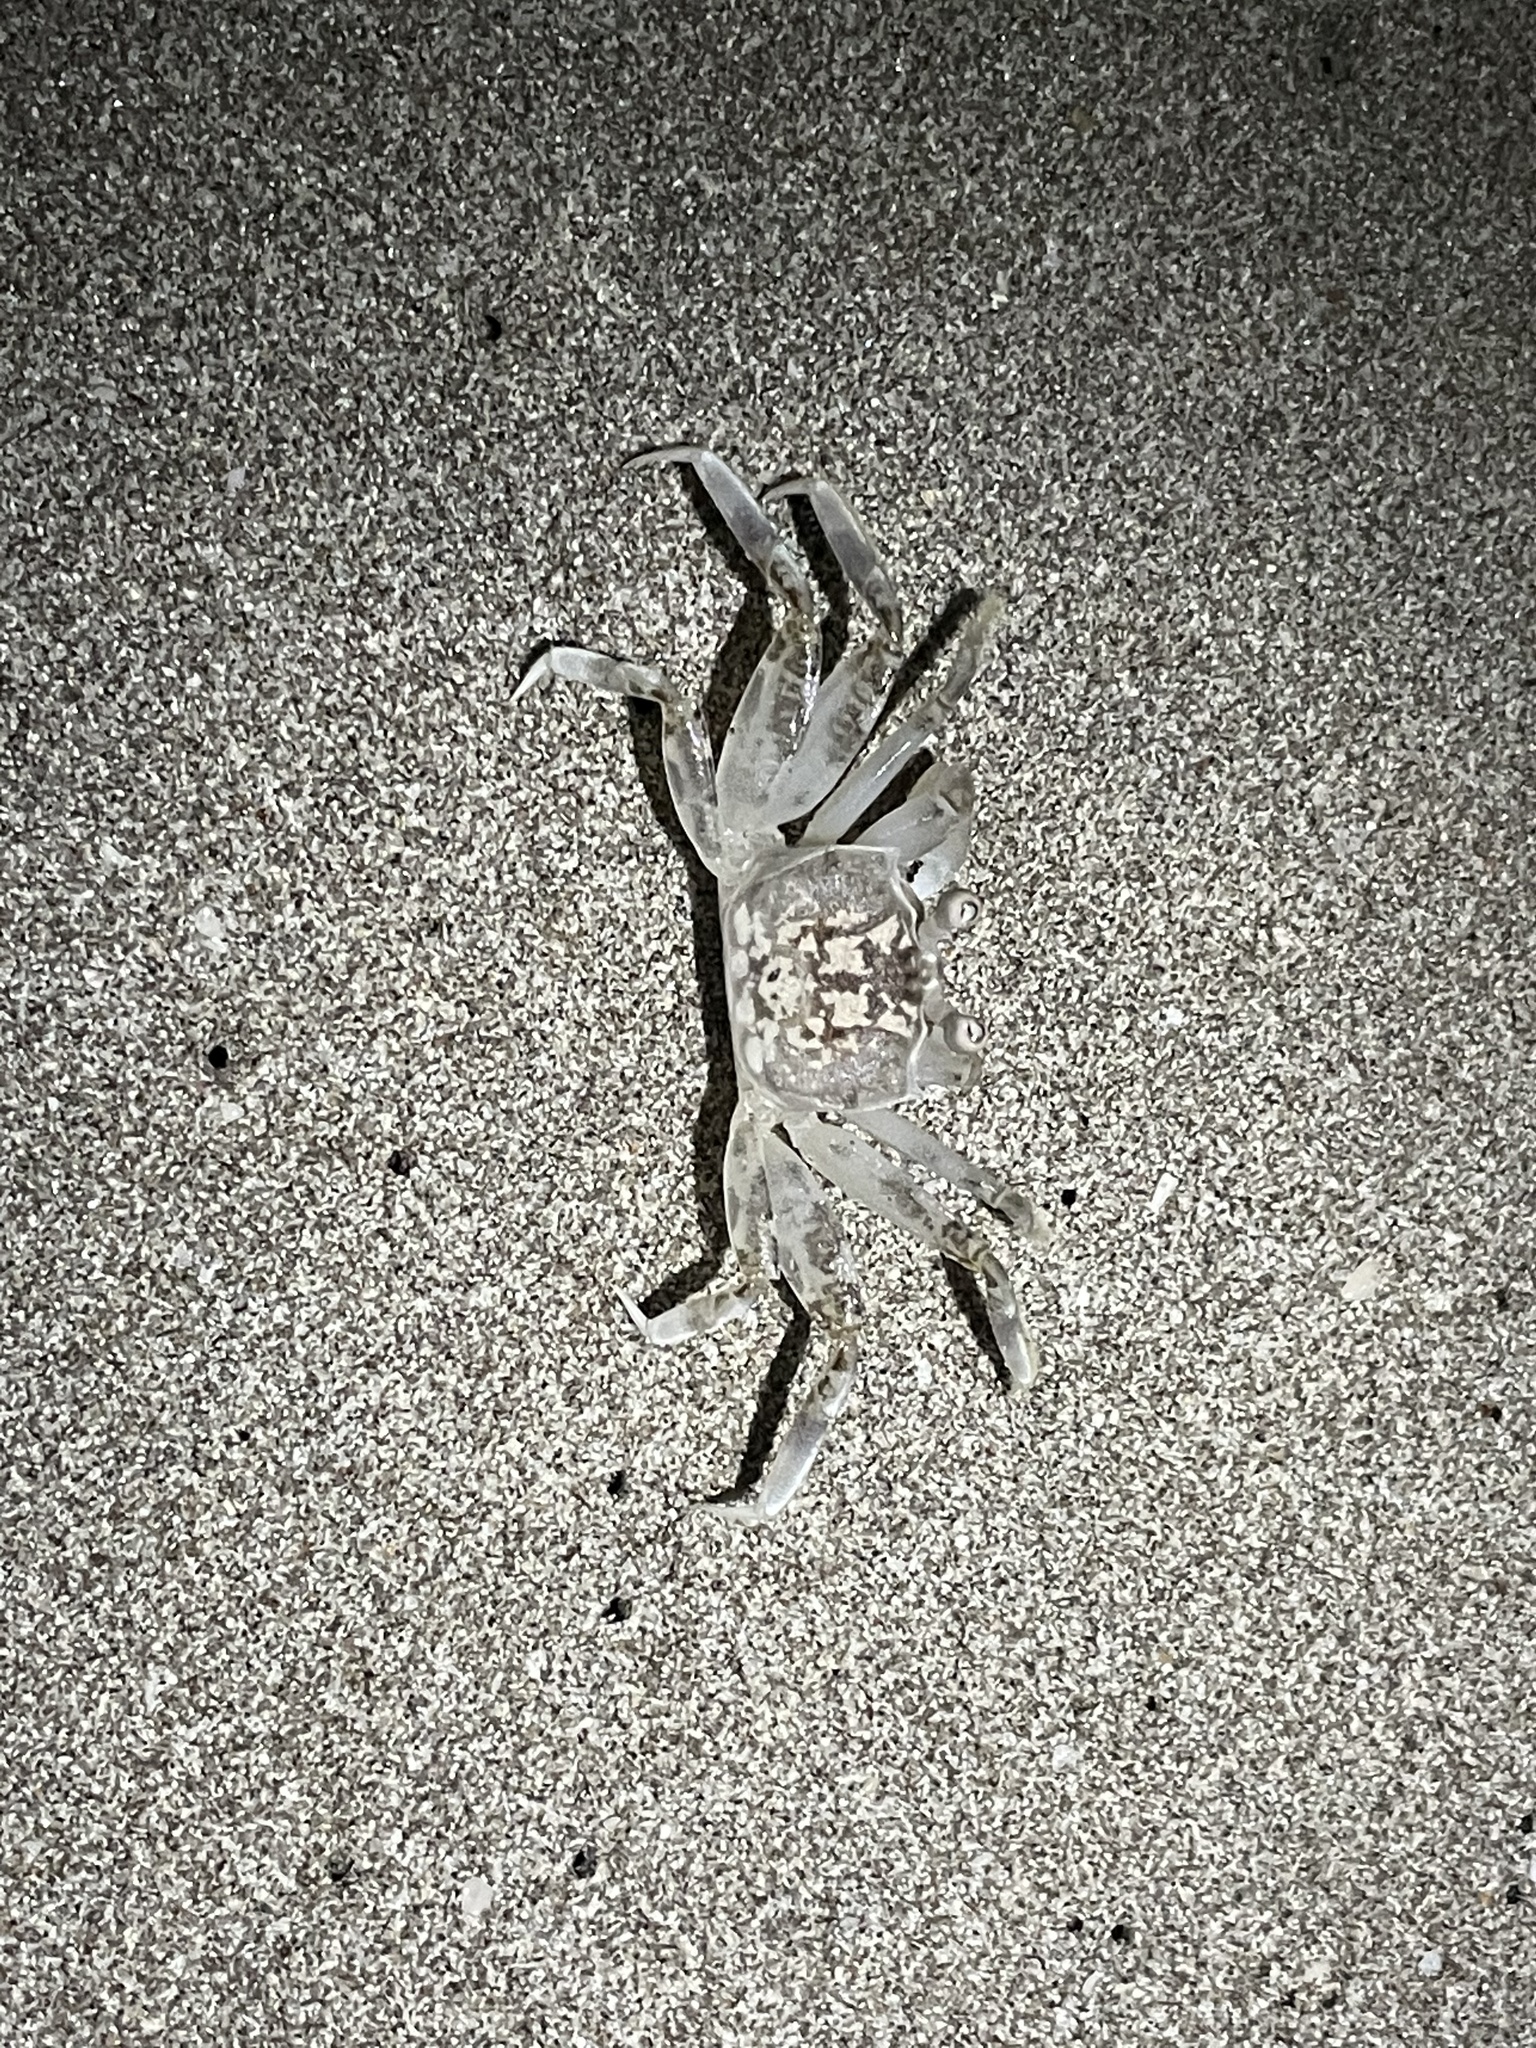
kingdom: Animalia
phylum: Arthropoda
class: Malacostraca
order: Decapoda
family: Ocypodidae
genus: Ocypode
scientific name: Ocypode occidentalis
